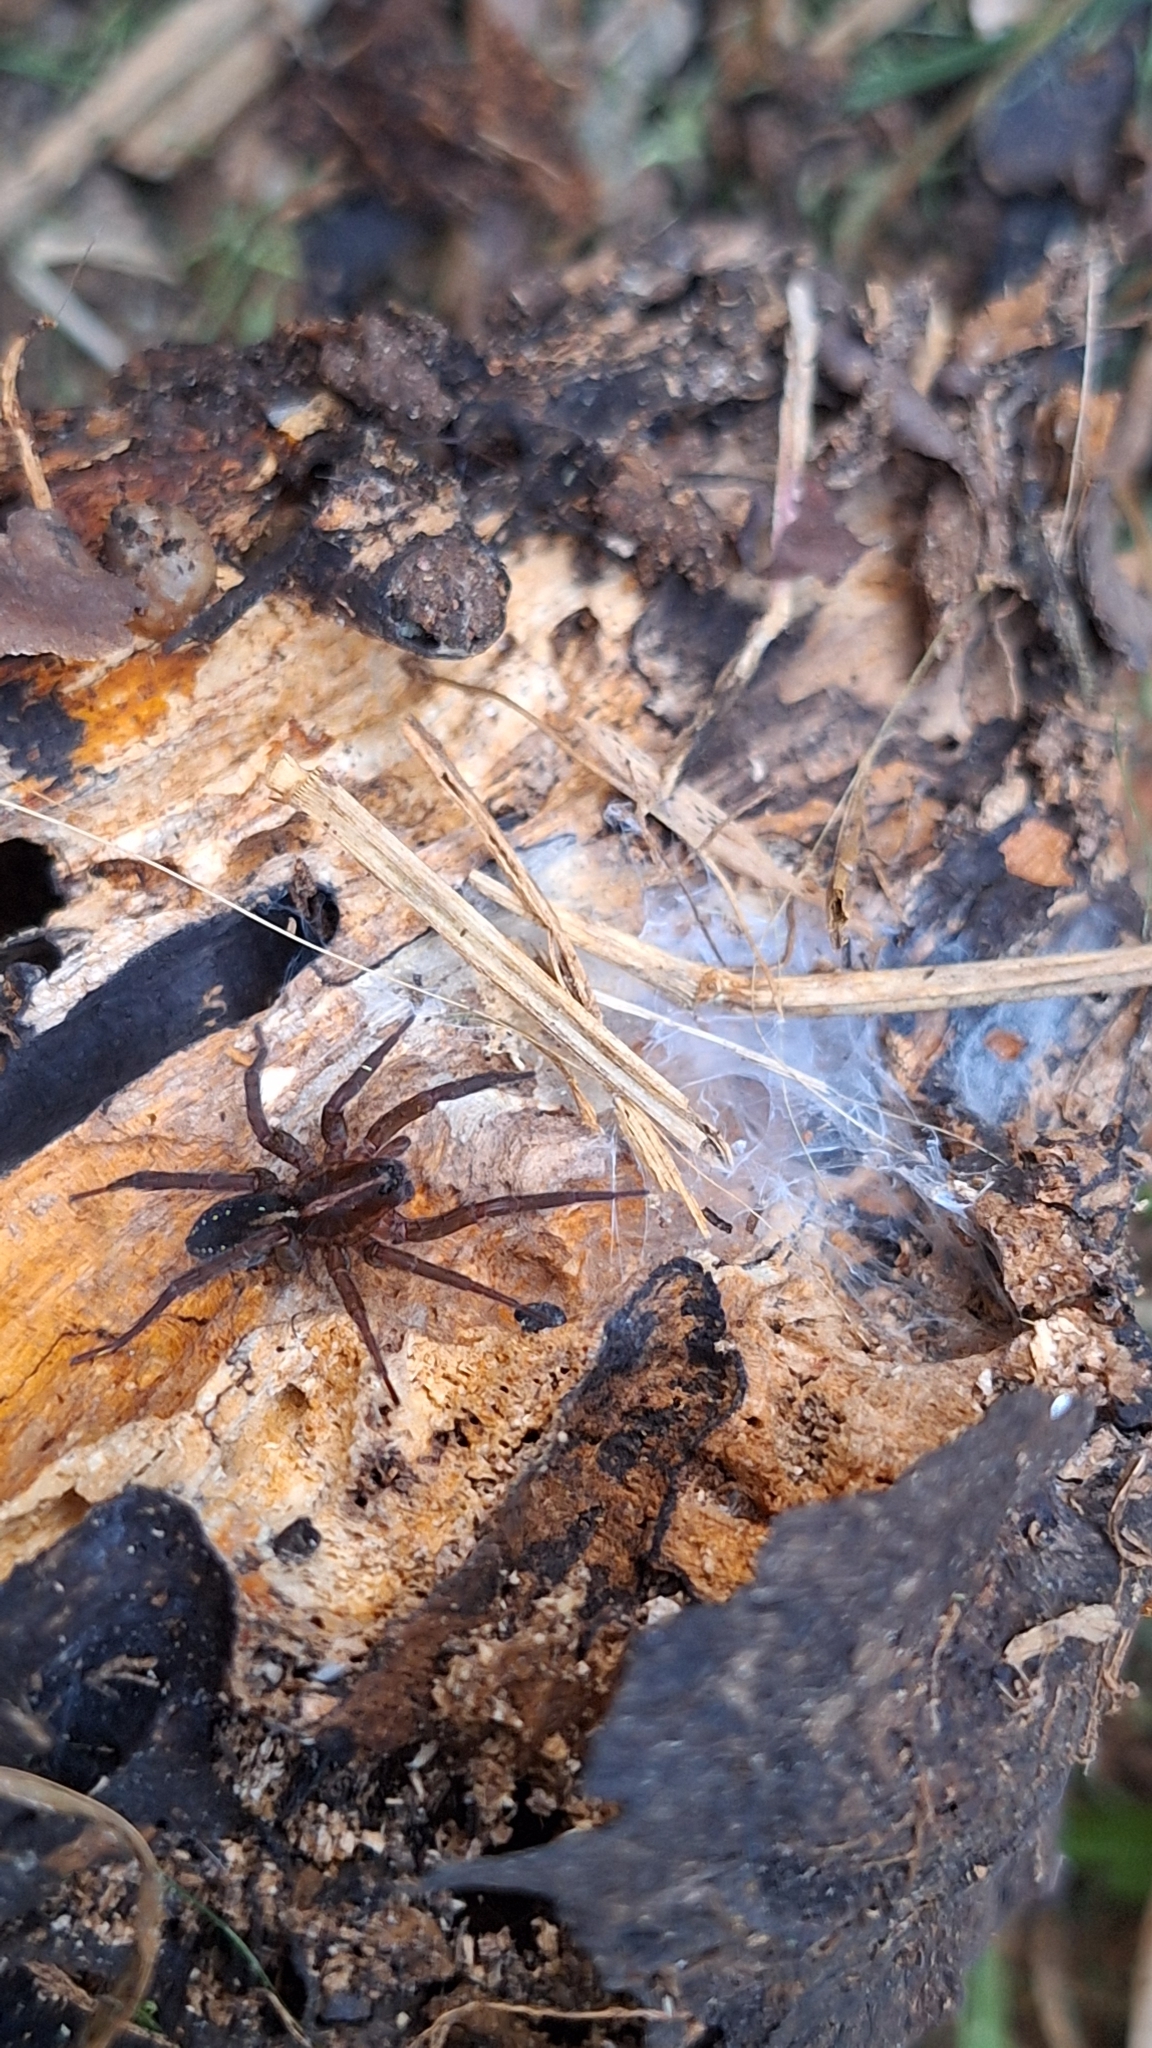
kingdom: Animalia
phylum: Arthropoda
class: Arachnida
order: Araneae
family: Lycosidae
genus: Trochosa
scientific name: Trochosa
